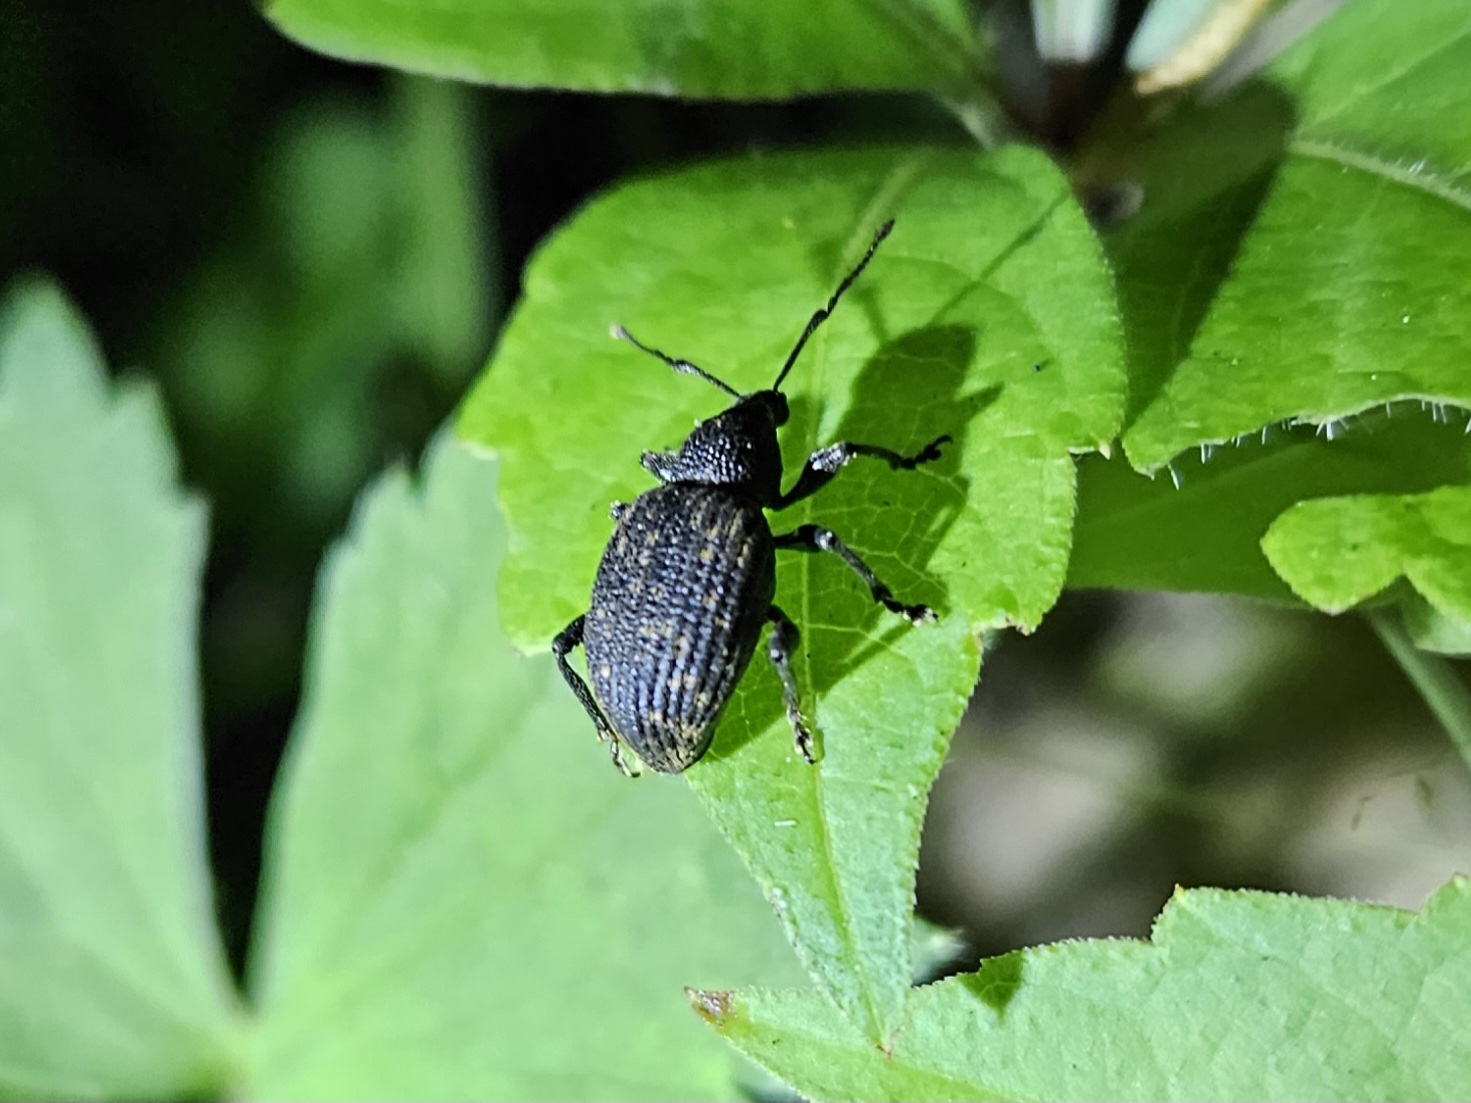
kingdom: Animalia
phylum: Arthropoda
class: Insecta
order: Coleoptera
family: Curculionidae
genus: Otiorhynchus
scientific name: Otiorhynchus sulcatus
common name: Black vine weevil
